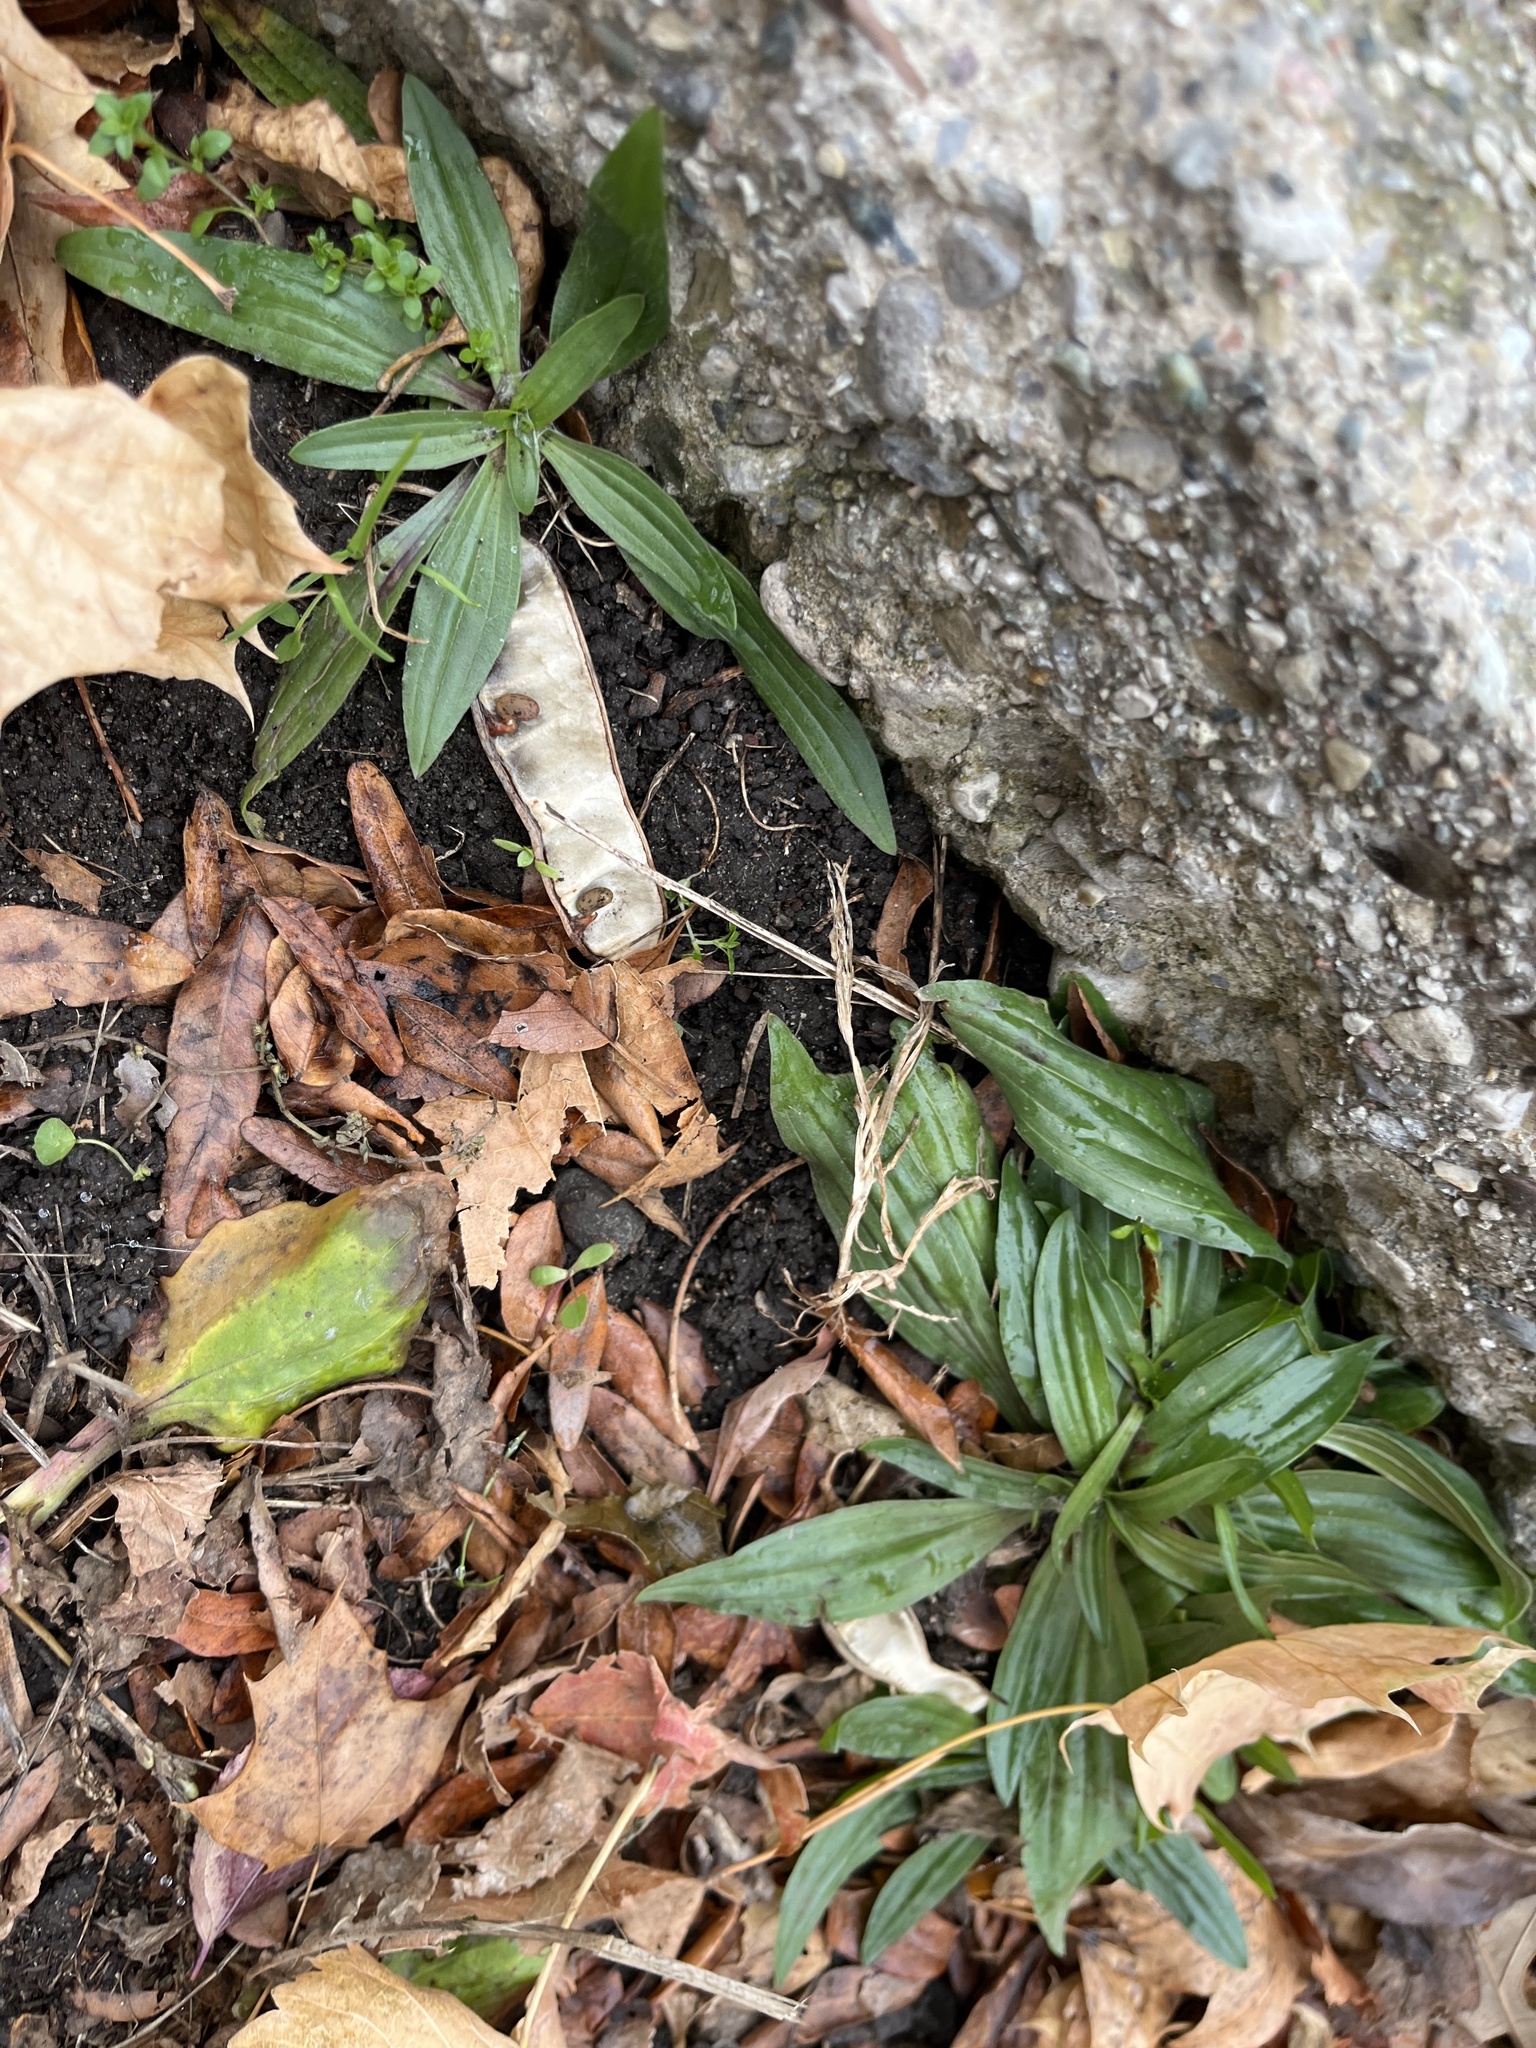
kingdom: Plantae
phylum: Tracheophyta
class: Magnoliopsida
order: Lamiales
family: Plantaginaceae
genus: Plantago
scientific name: Plantago lanceolata
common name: Ribwort plantain
